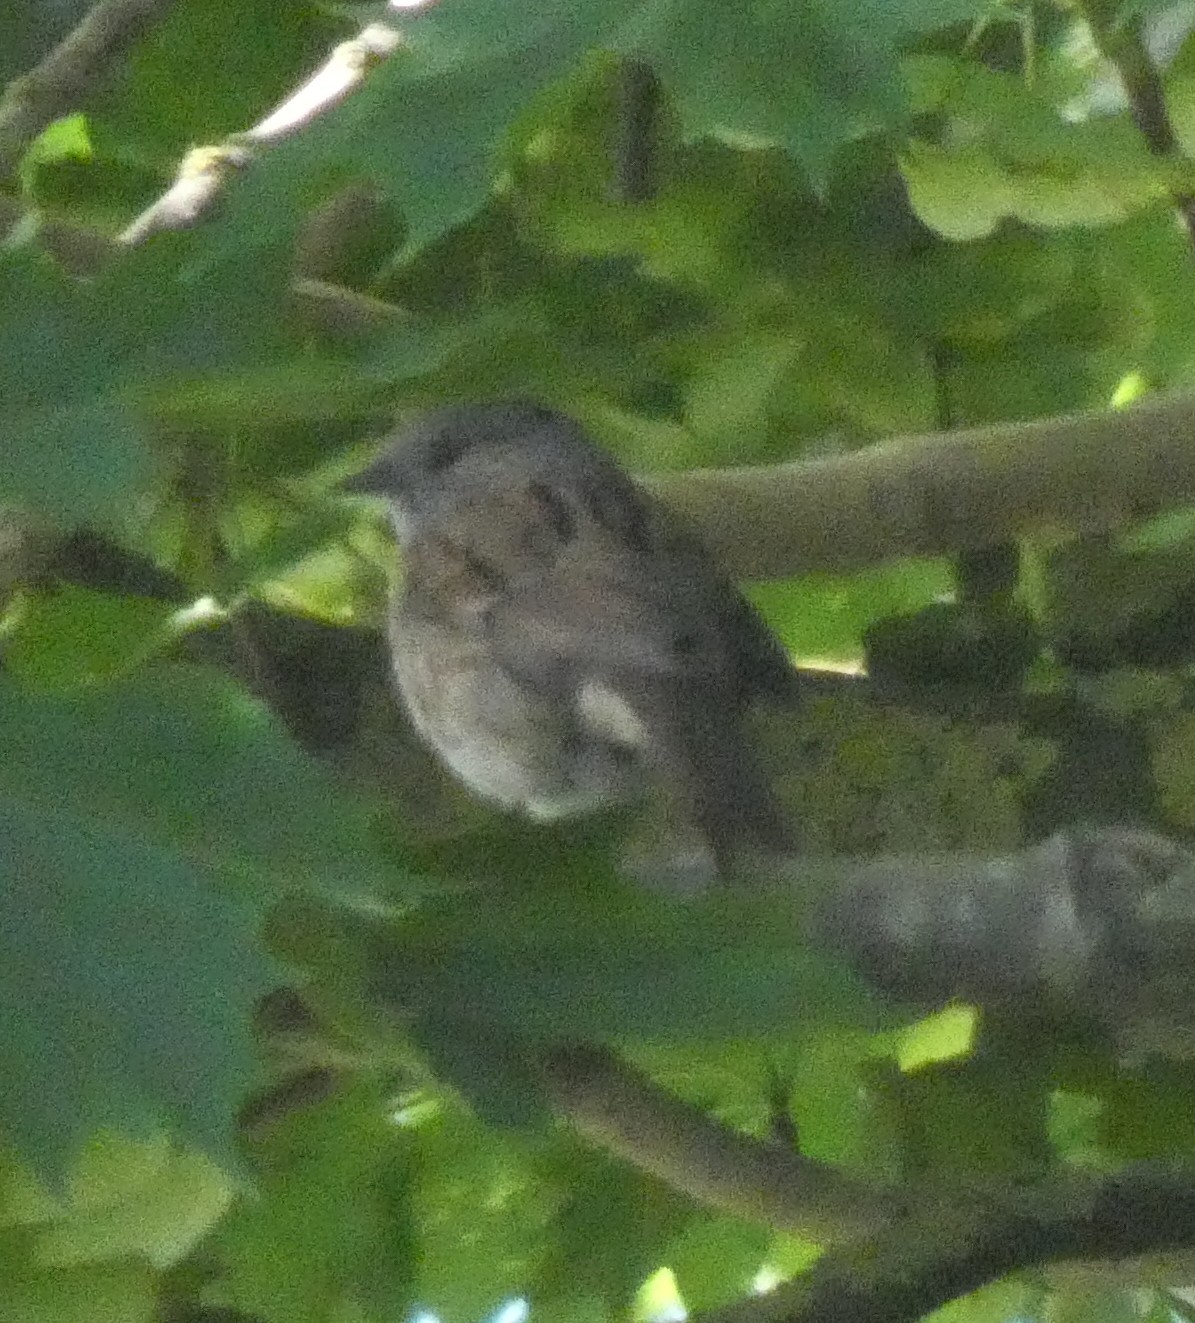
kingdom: Animalia
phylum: Chordata
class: Aves
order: Passeriformes
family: Prunellidae
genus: Prunella
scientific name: Prunella modularis
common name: Dunnock
